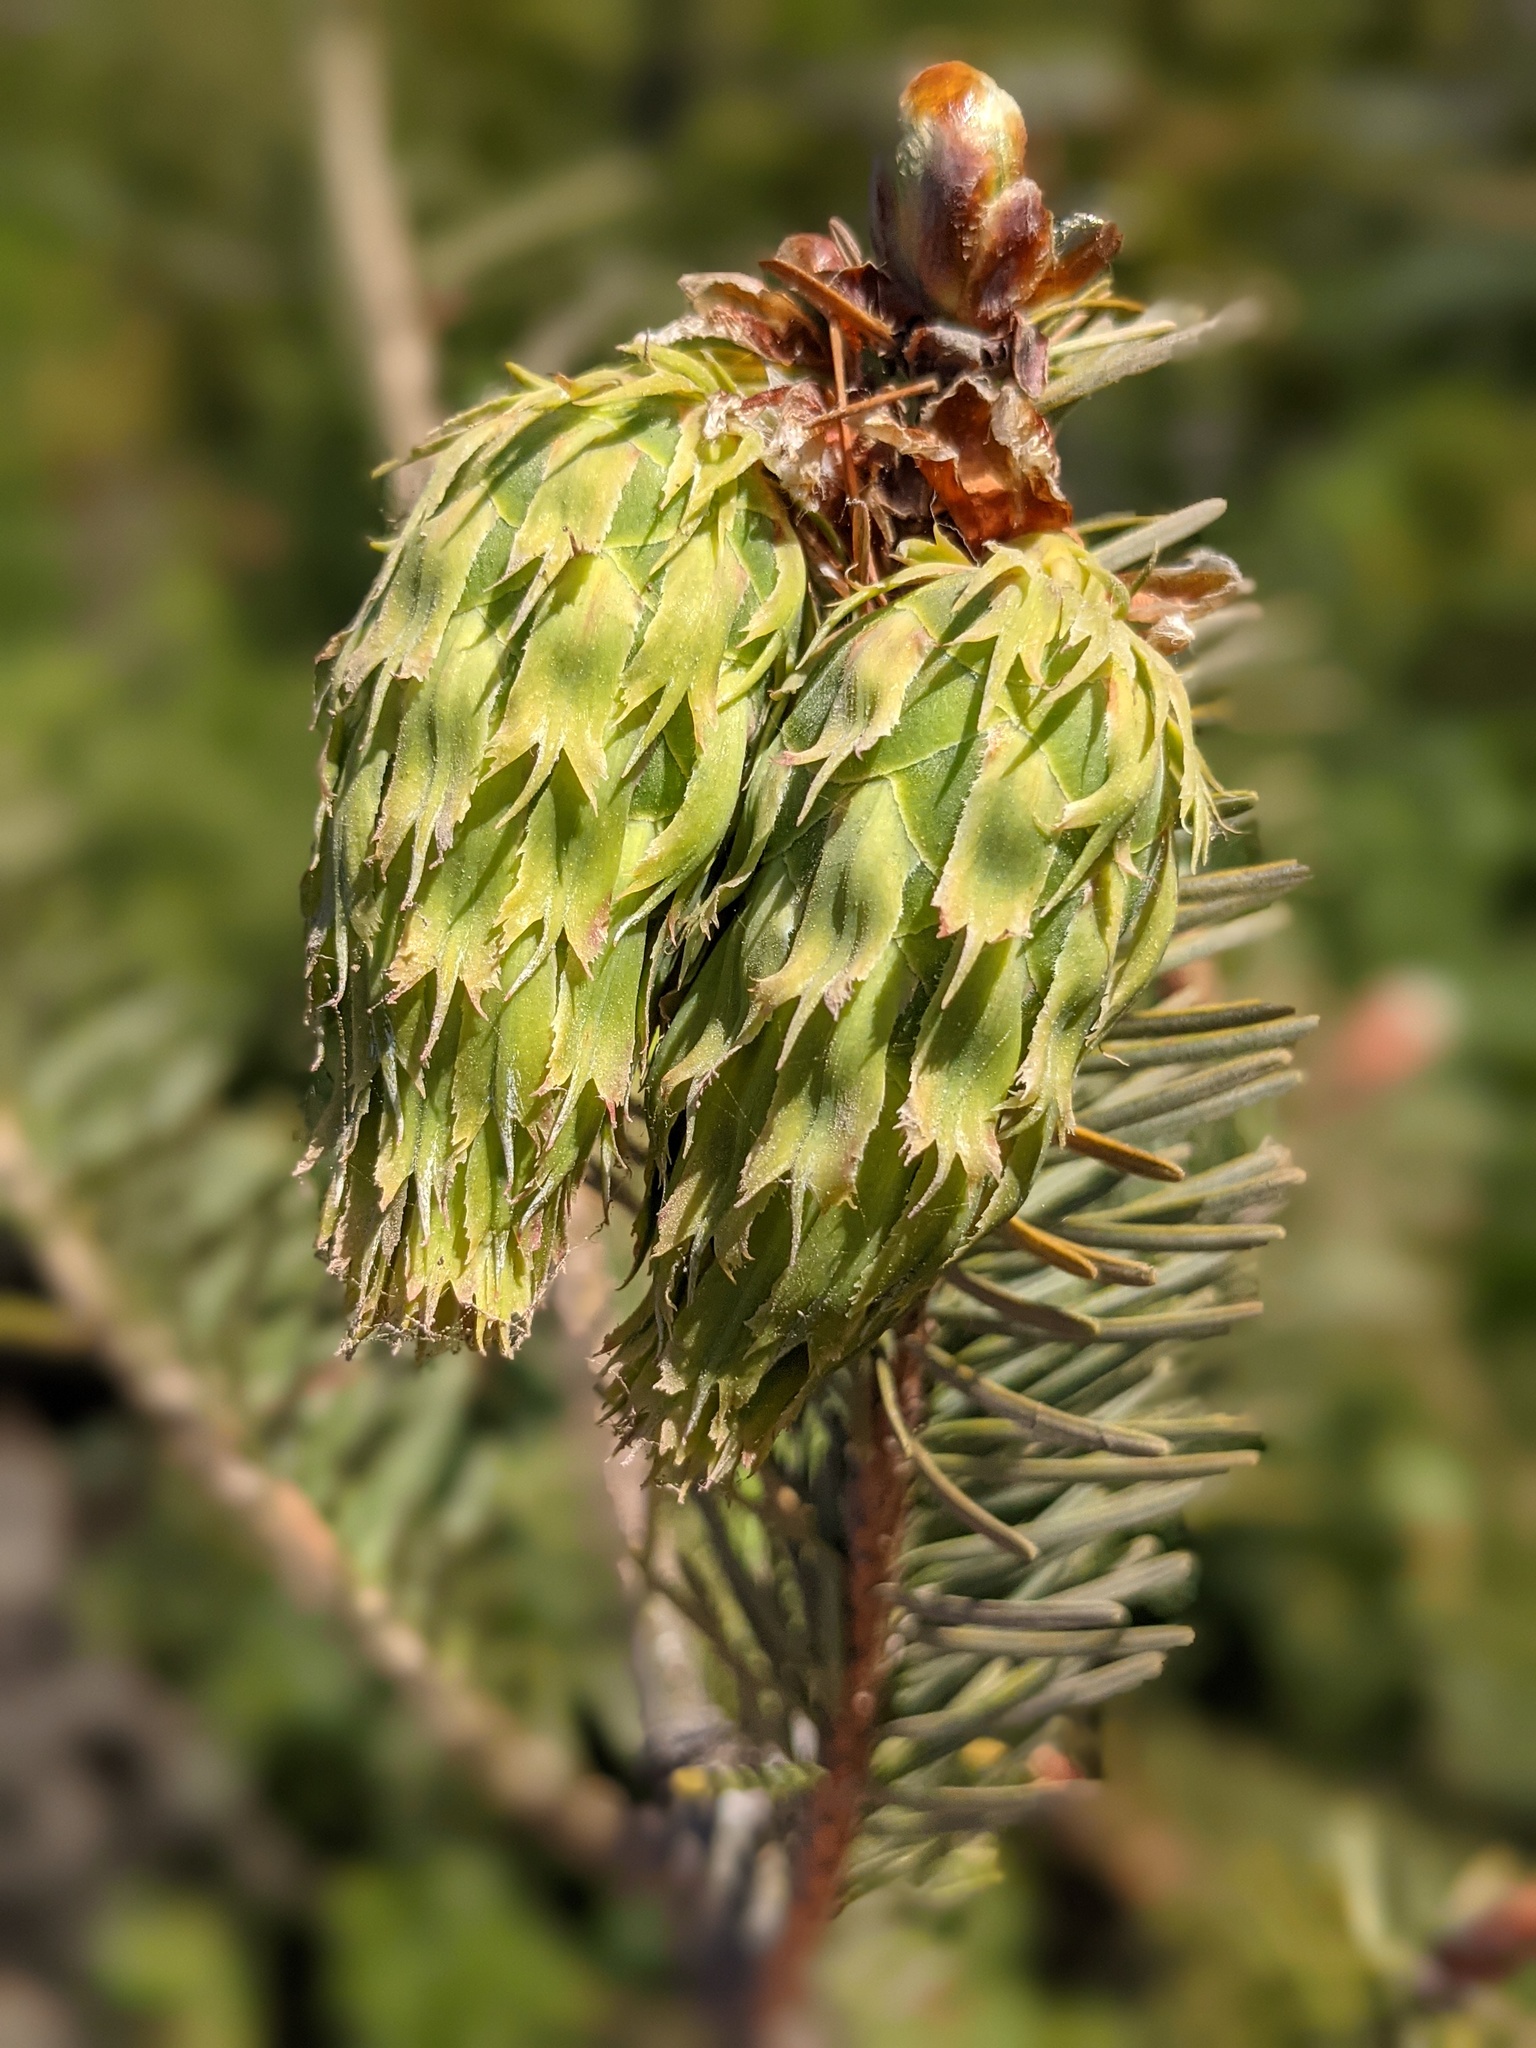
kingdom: Plantae
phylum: Tracheophyta
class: Pinopsida
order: Pinales
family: Pinaceae
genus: Pseudotsuga
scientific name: Pseudotsuga menziesii
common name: Douglas fir
